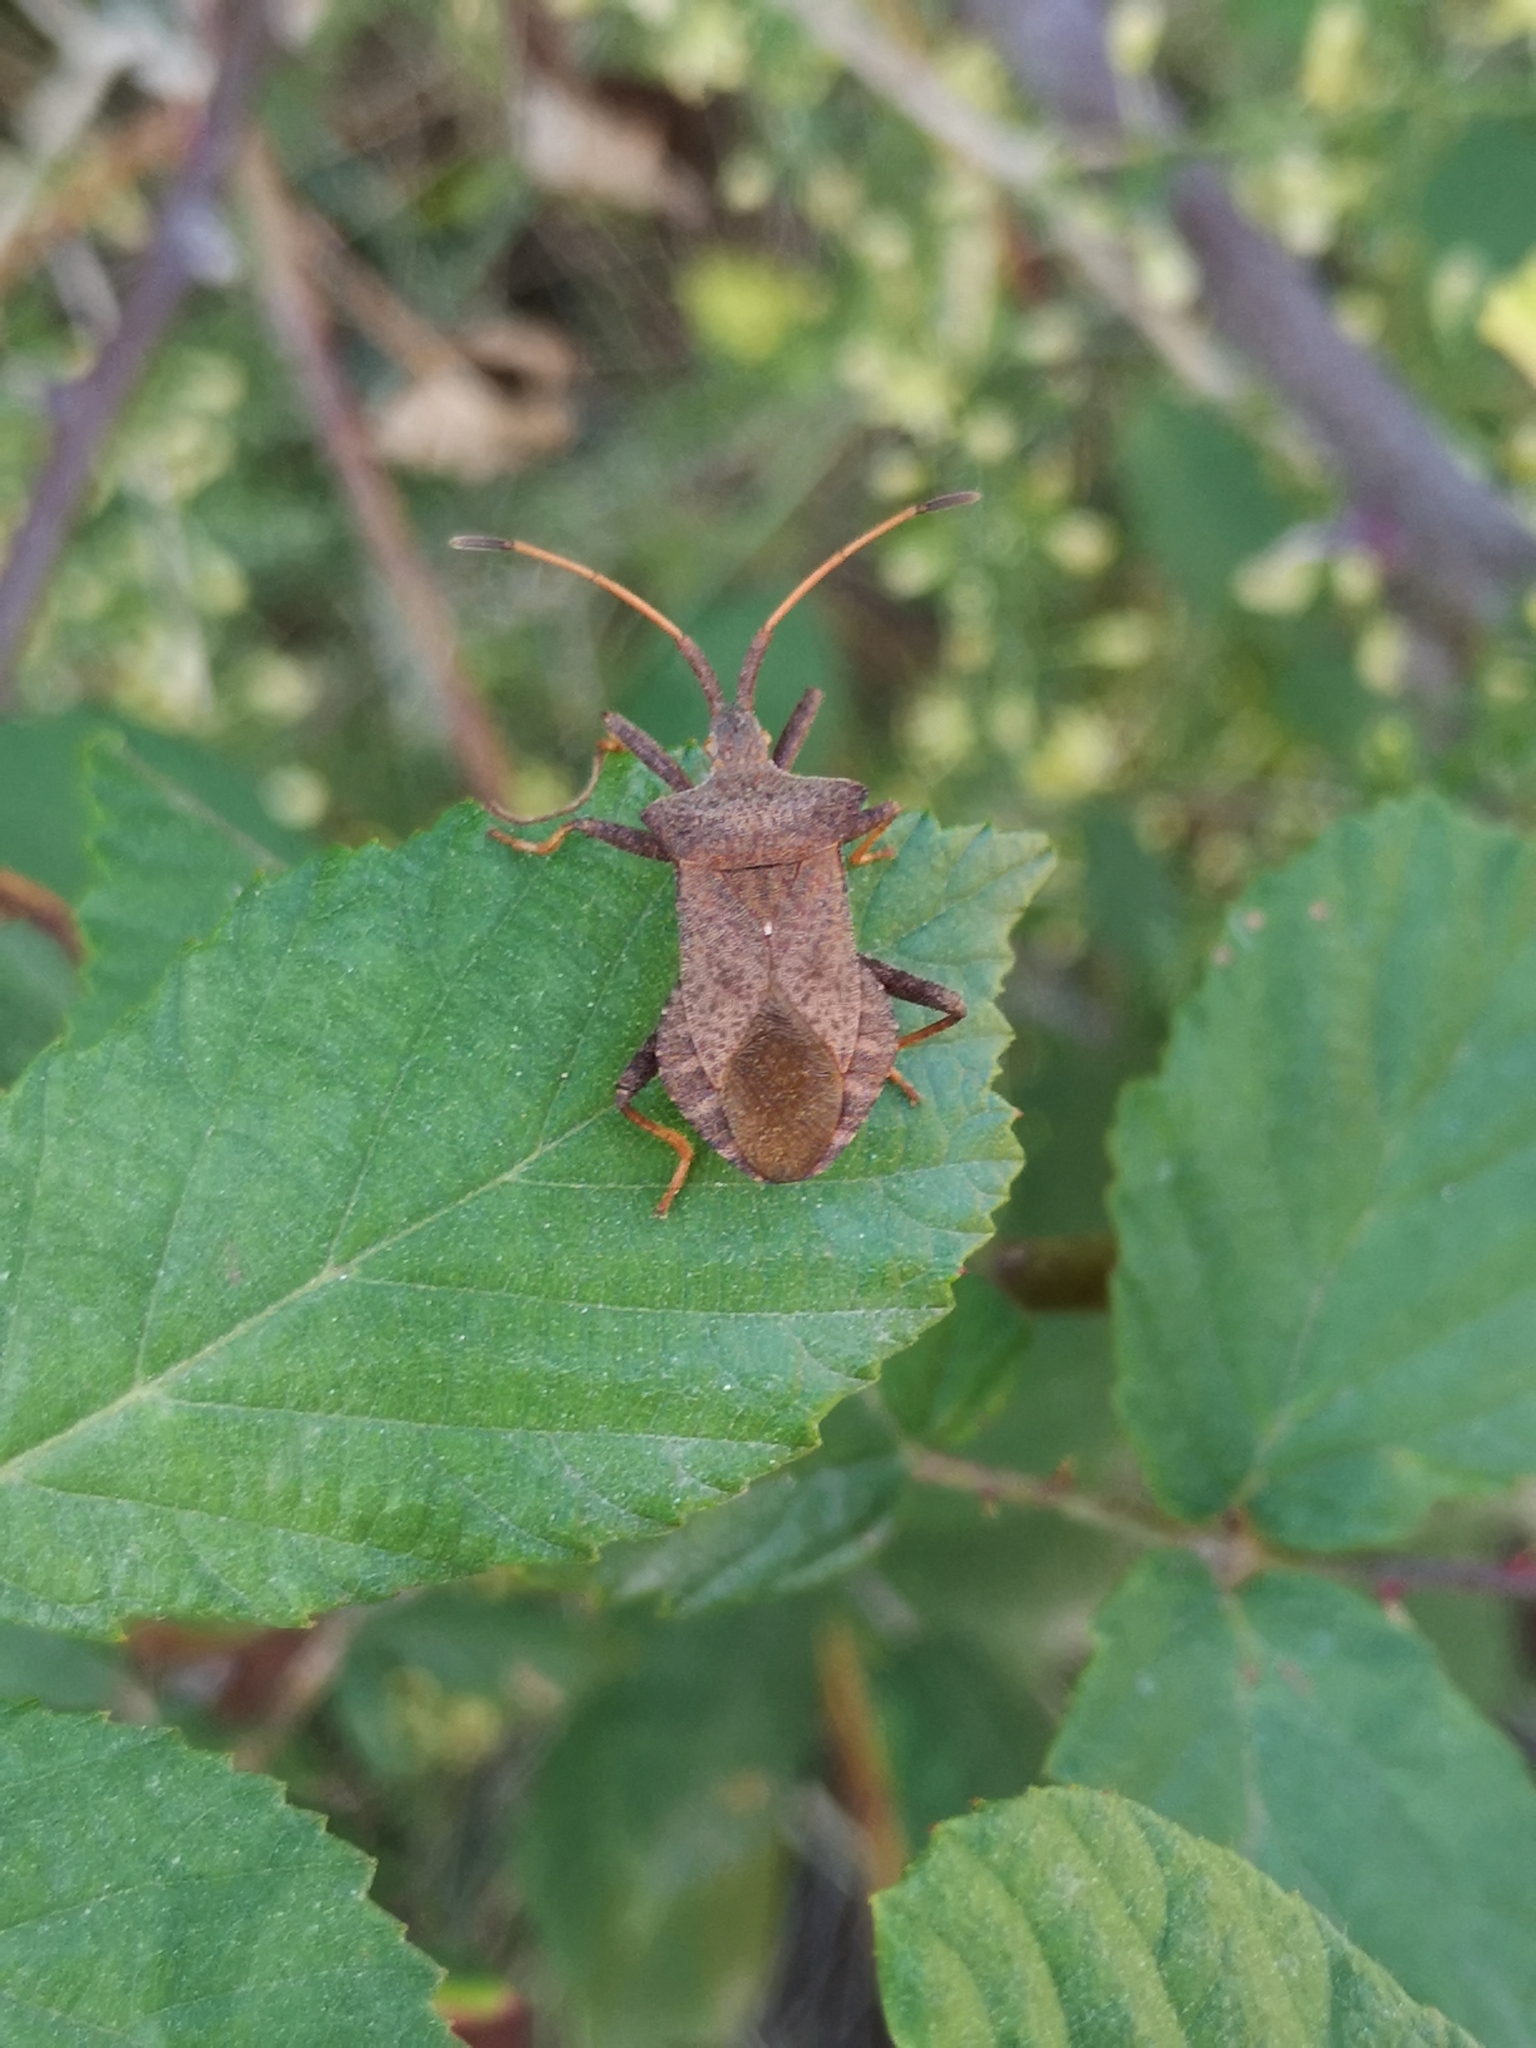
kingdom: Animalia
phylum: Arthropoda
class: Insecta
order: Hemiptera
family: Coreidae
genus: Coreus
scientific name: Coreus marginatus
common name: Dock bug
